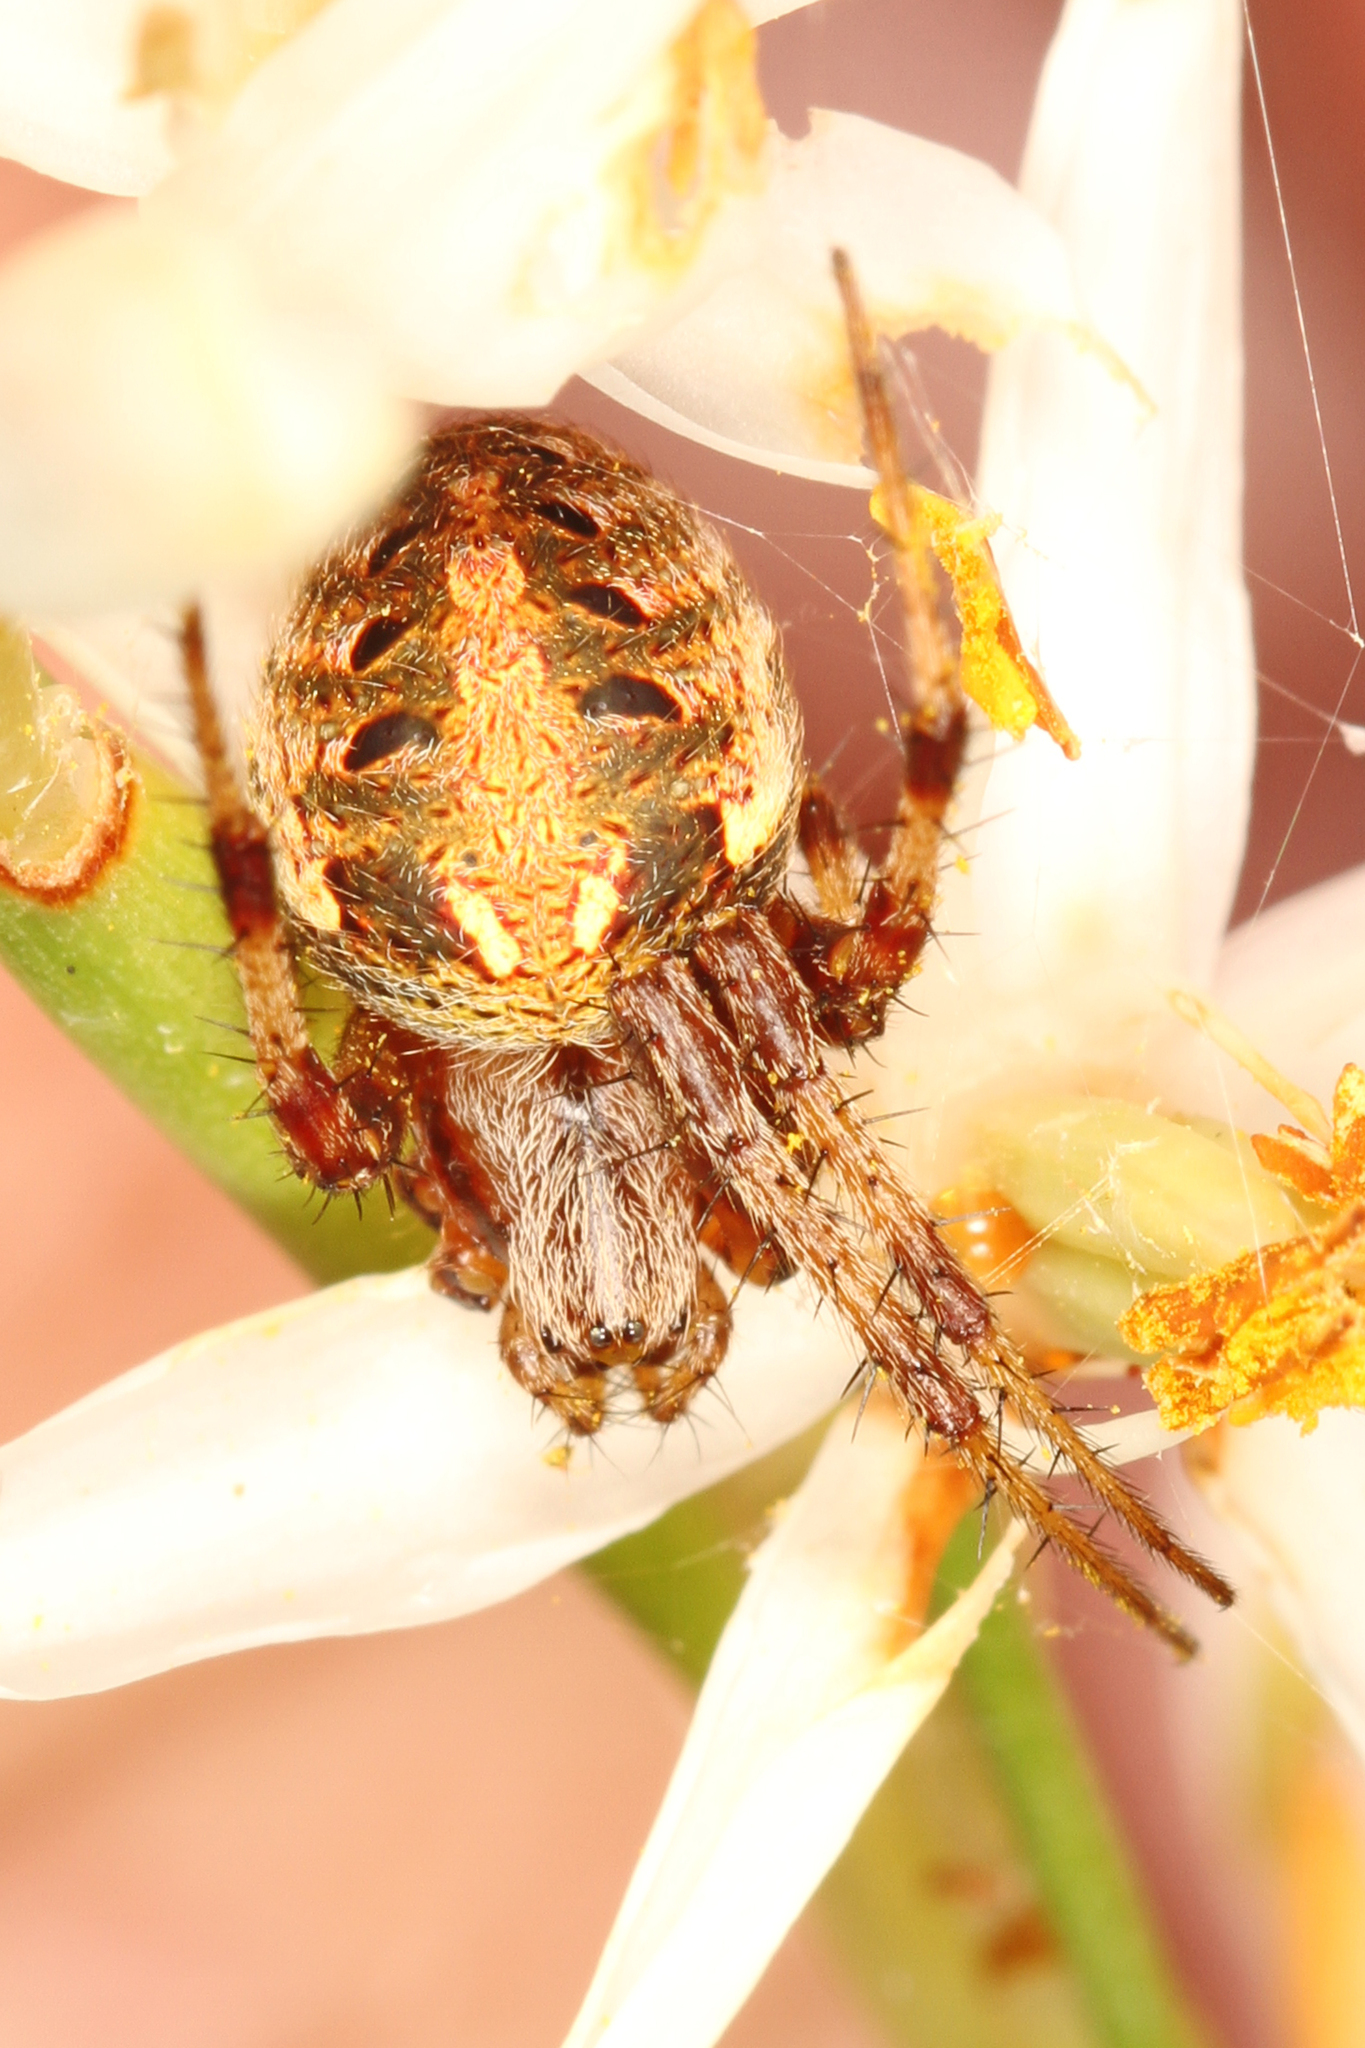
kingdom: Animalia
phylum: Arthropoda
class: Arachnida
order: Araneae
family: Araneidae
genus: Neoscona
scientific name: Neoscona arabesca
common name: Orb weavers
